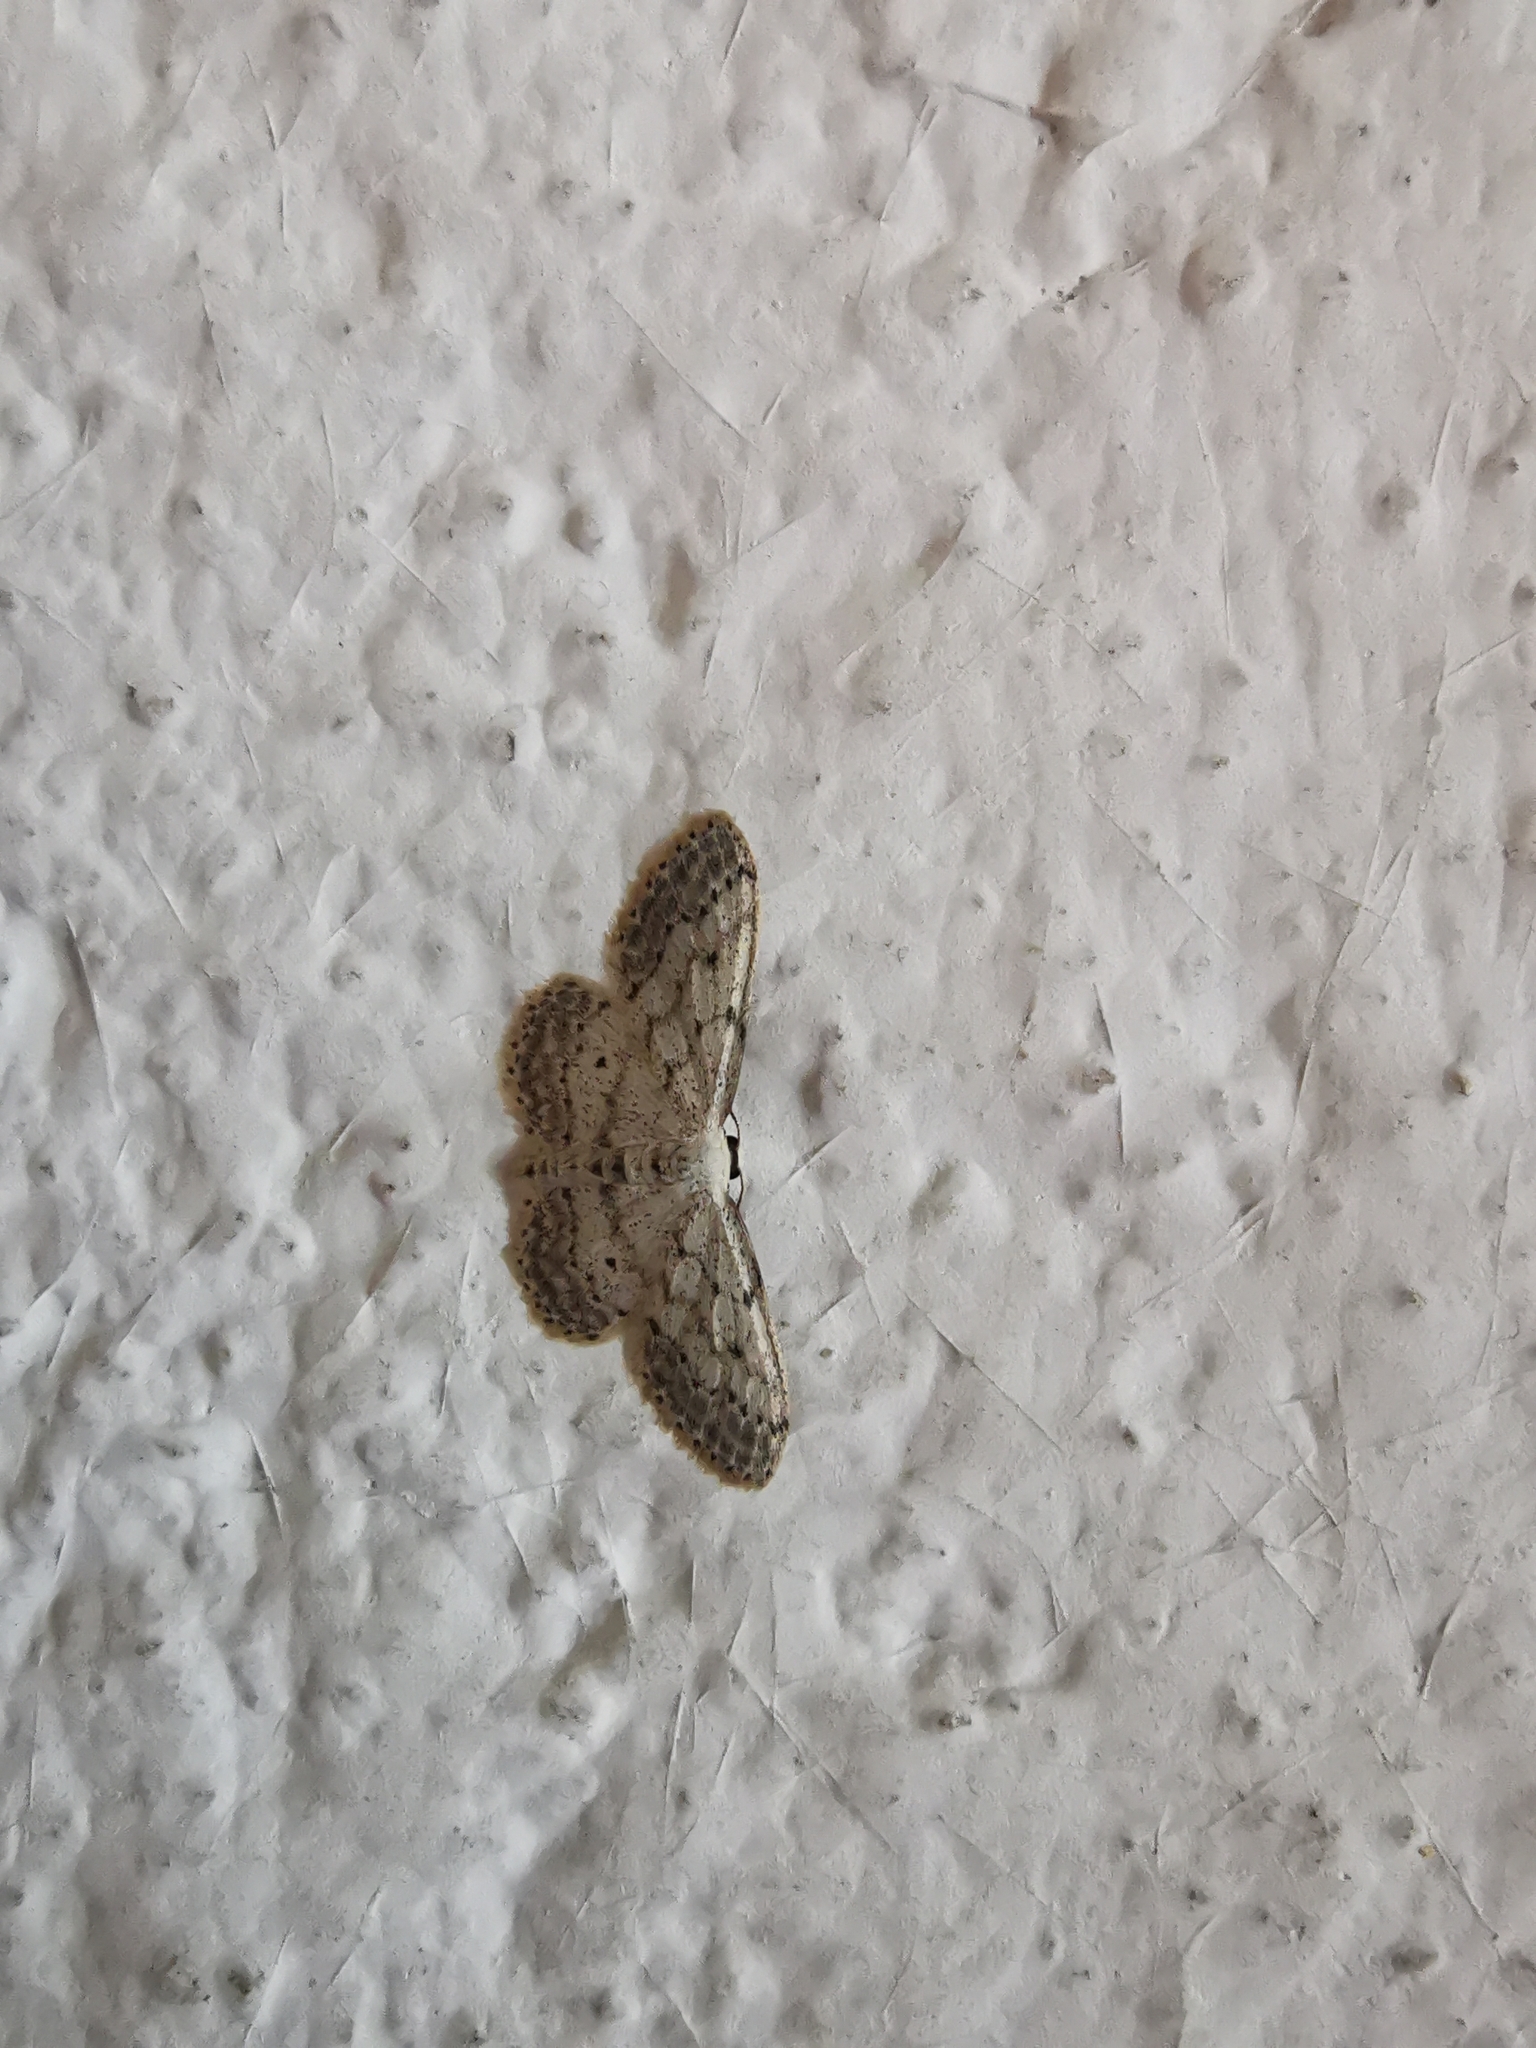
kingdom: Animalia
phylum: Arthropoda
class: Insecta
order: Lepidoptera
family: Geometridae
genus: Idaea
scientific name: Idaea seriata
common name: Small dusty wave
